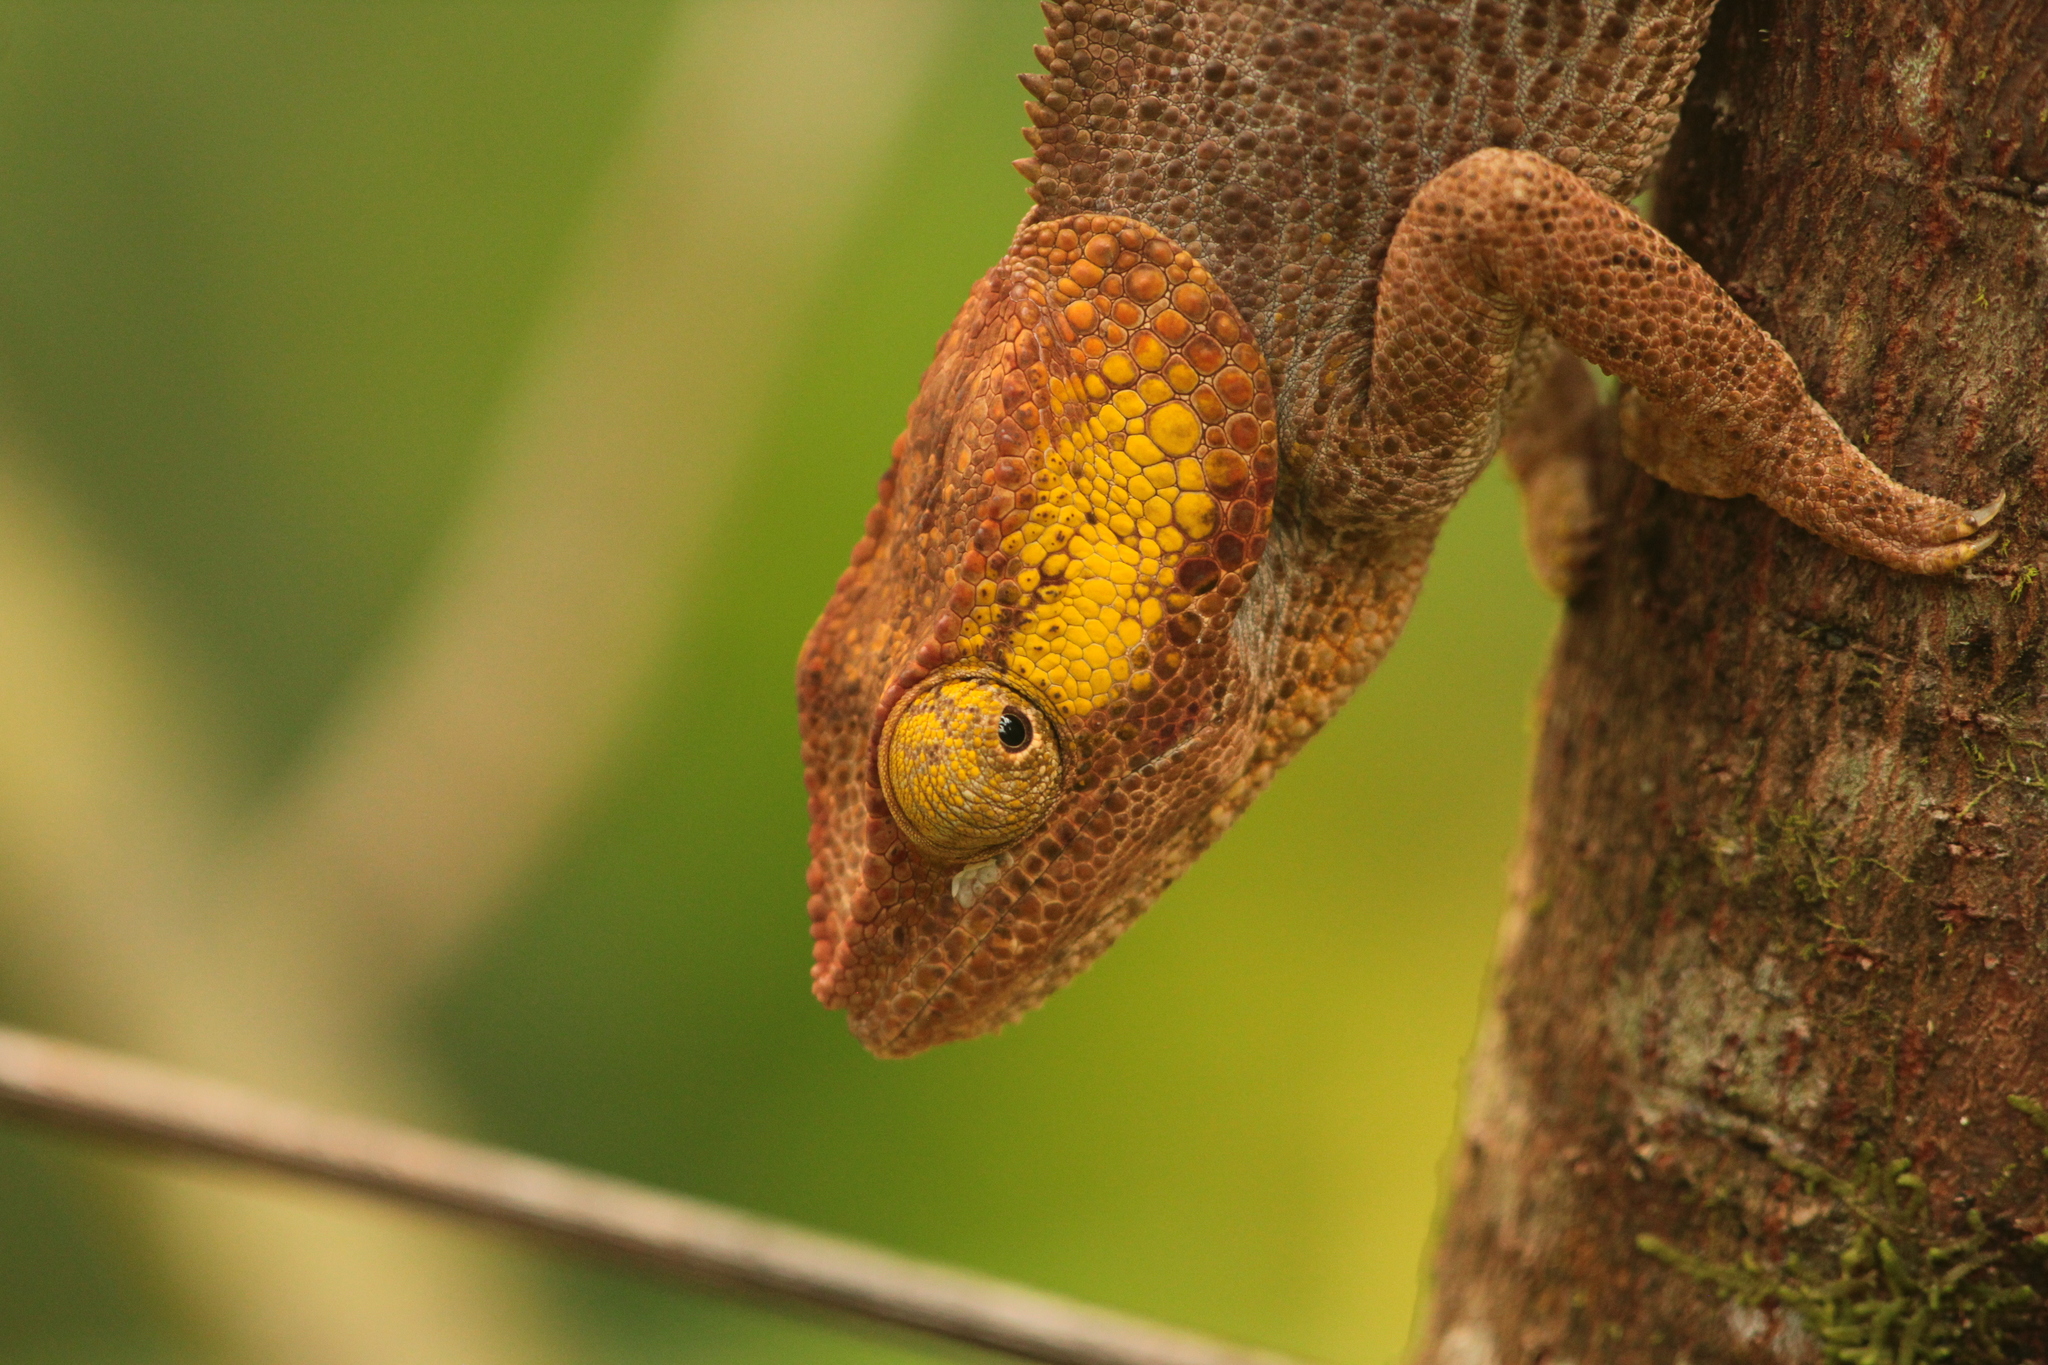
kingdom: Animalia
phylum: Chordata
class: Squamata
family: Chamaeleonidae
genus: Calumma
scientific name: Calumma brevicorne
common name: Short-horned chameleon
